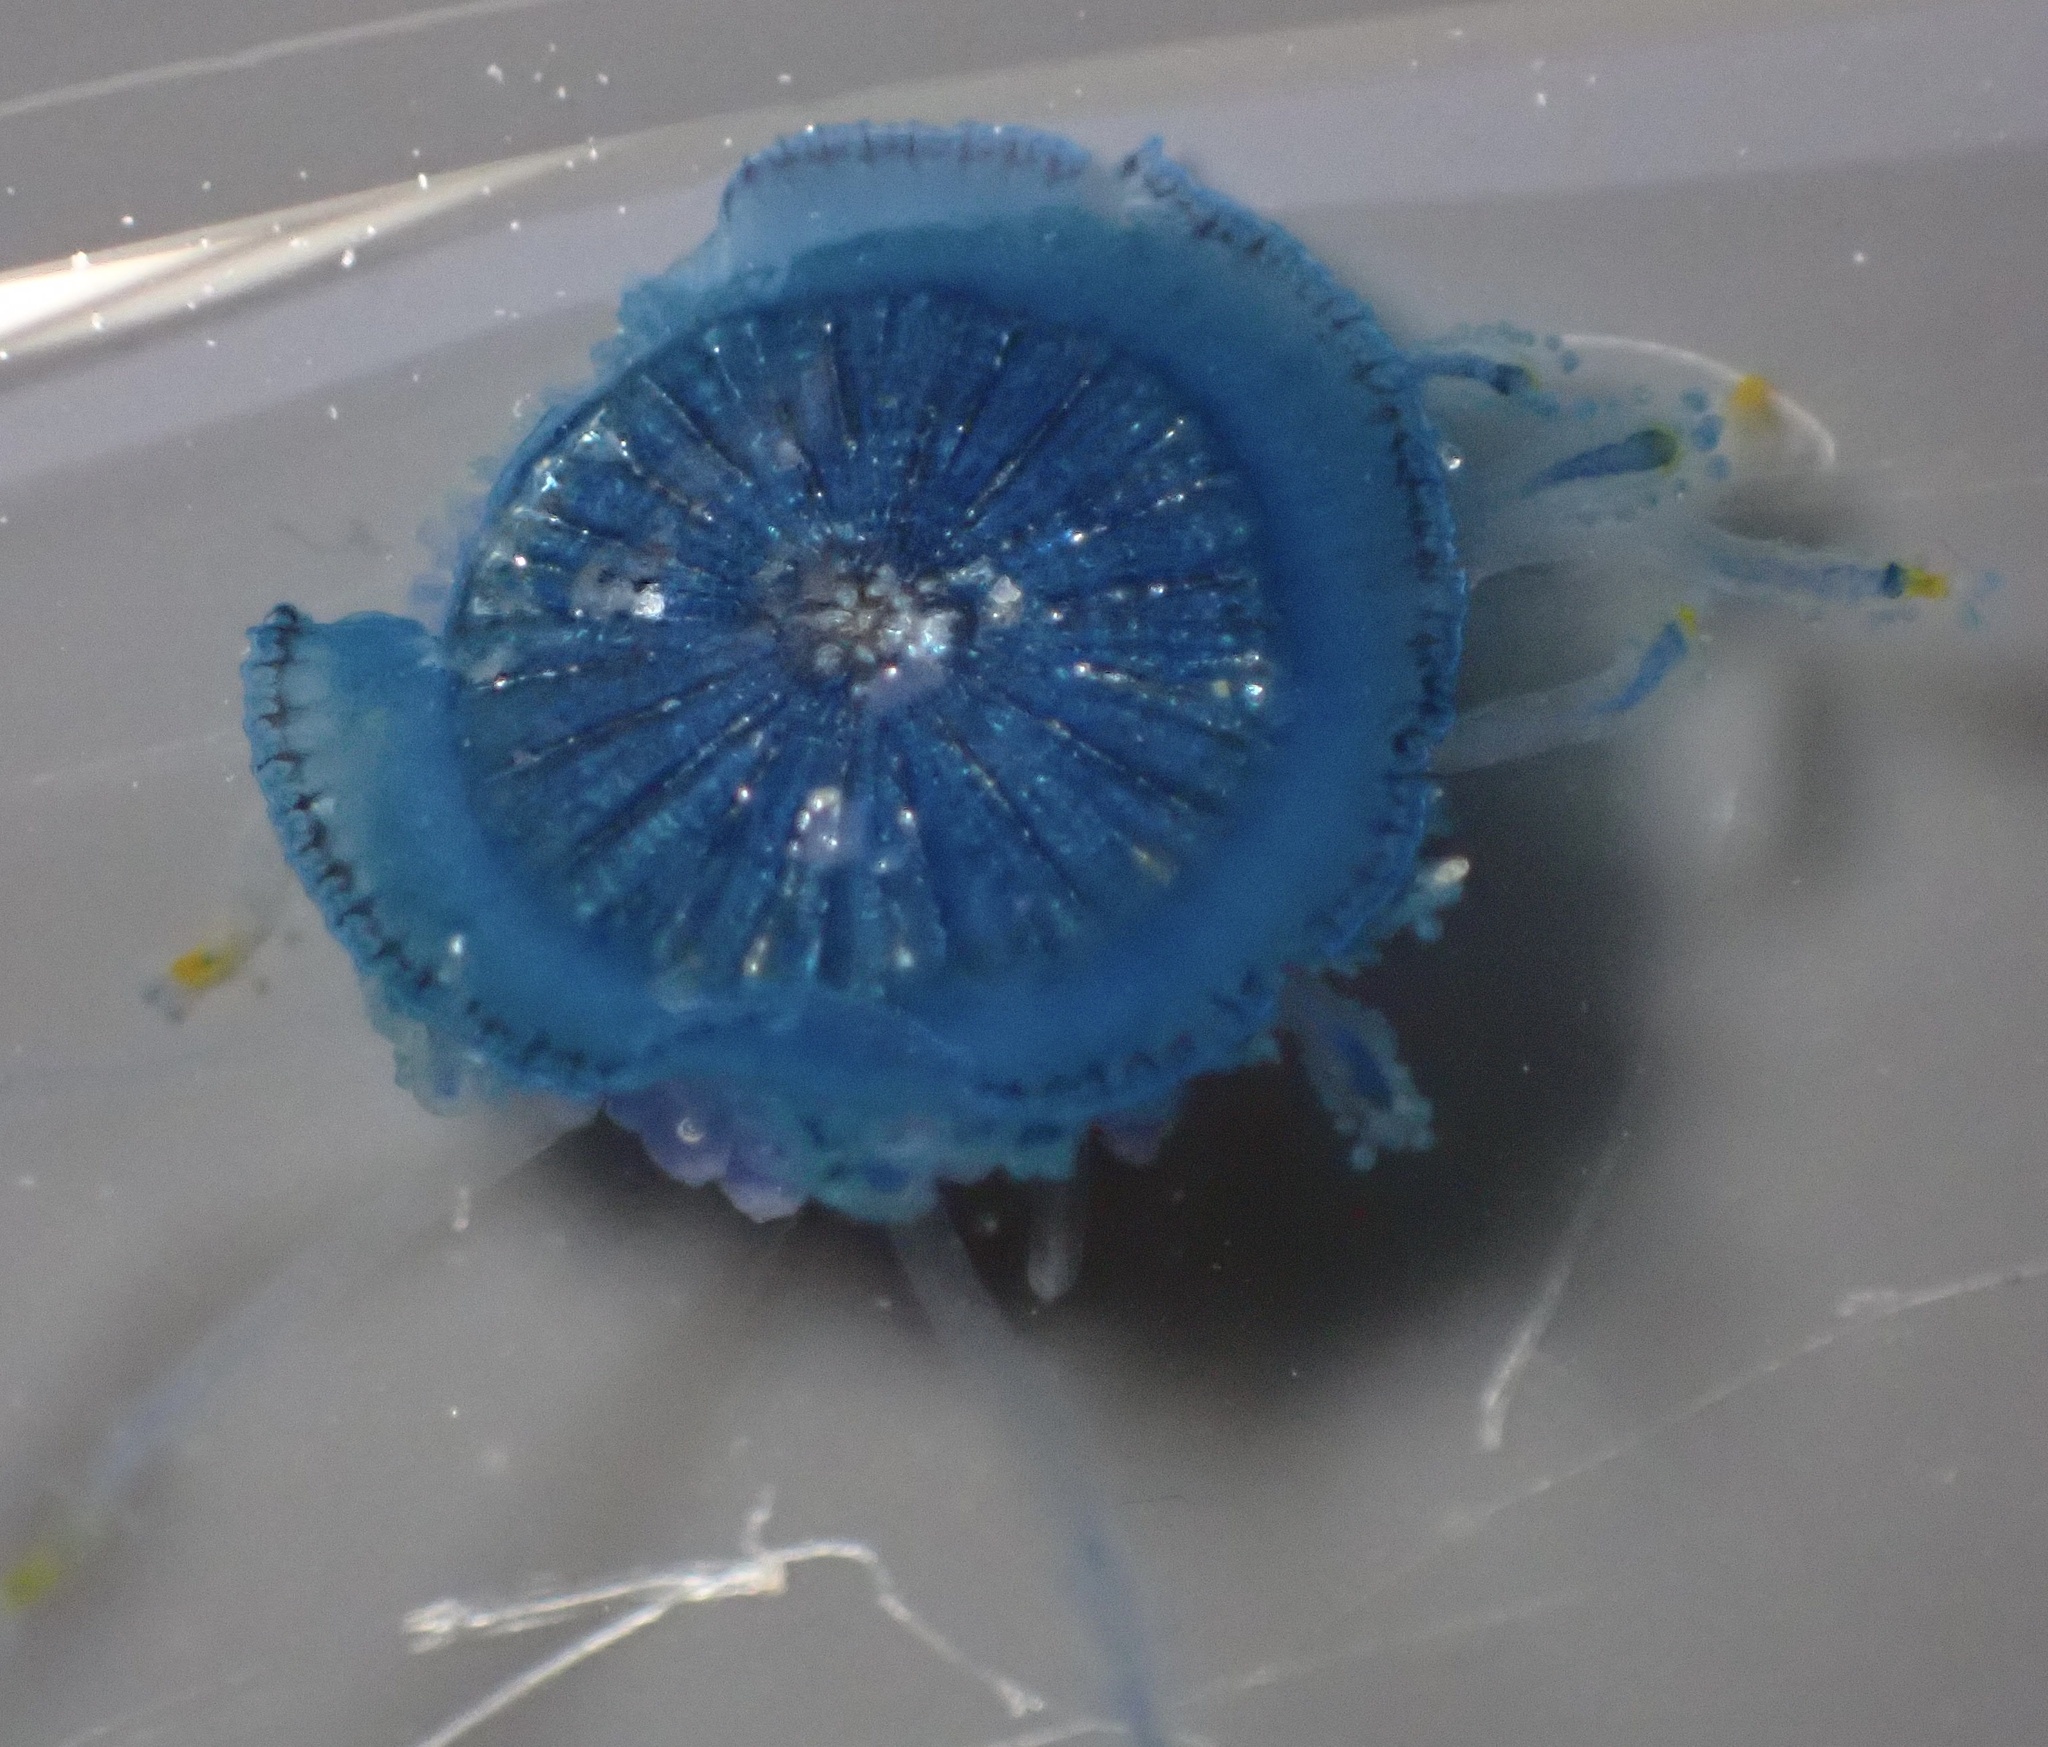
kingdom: Animalia
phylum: Cnidaria
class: Hydrozoa
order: Anthoathecata
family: Porpitidae
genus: Porpita
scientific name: Porpita porpita
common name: Blue button
